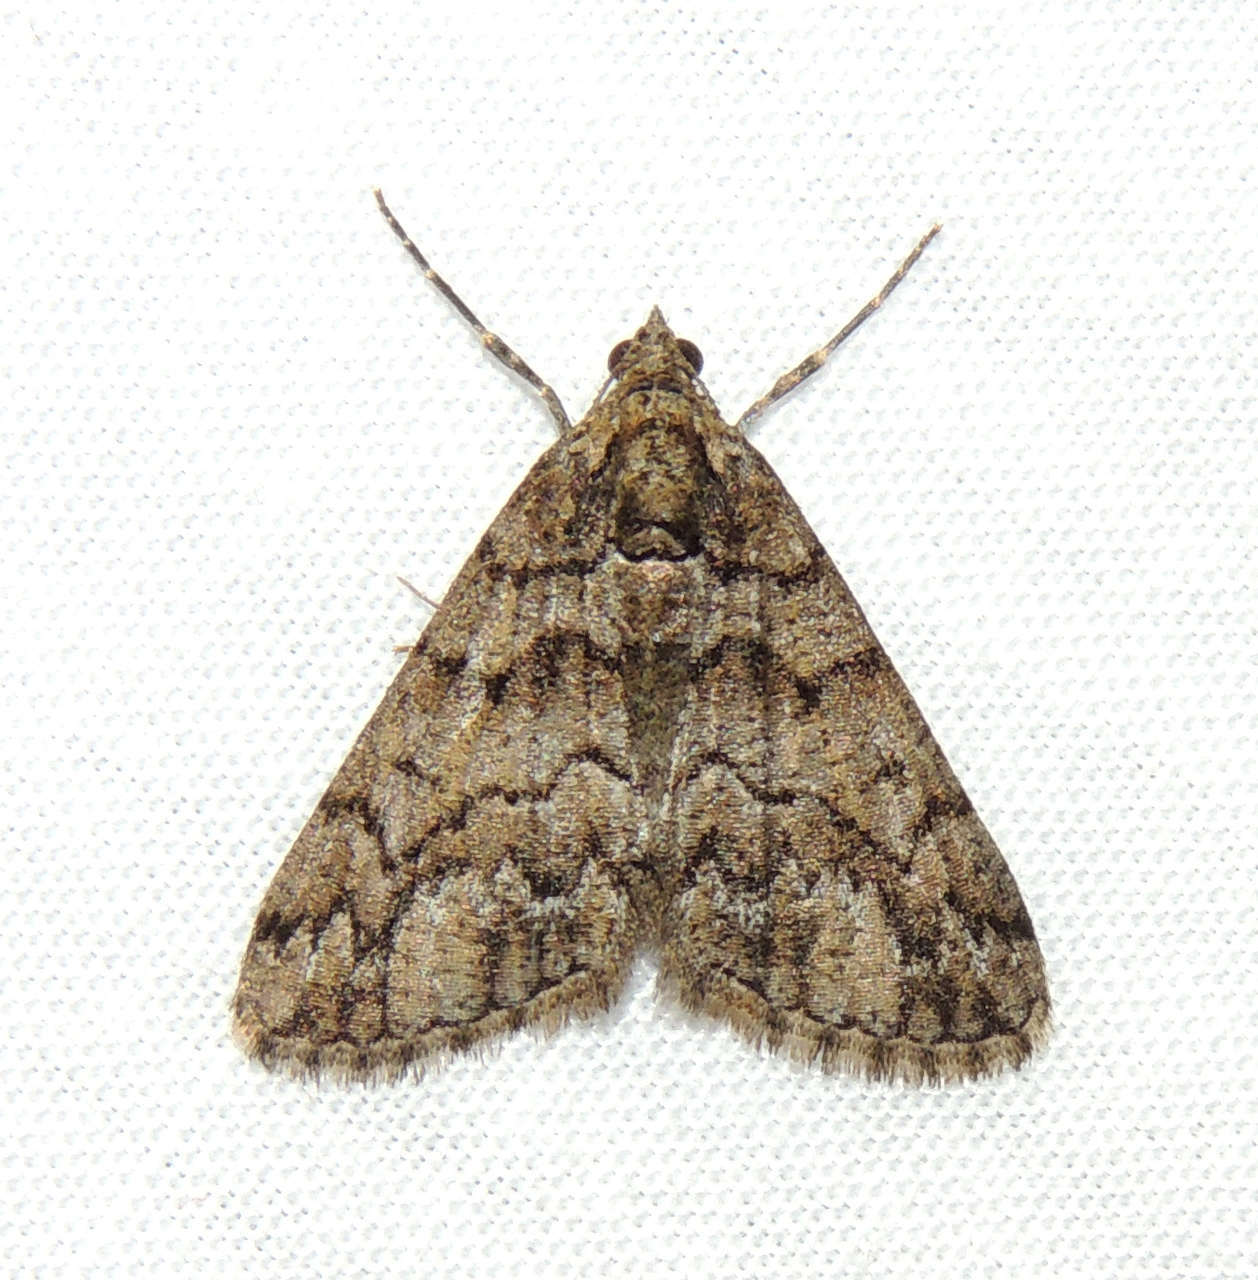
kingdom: Animalia
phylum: Arthropoda
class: Insecta
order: Lepidoptera
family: Geometridae
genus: Lipogya
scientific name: Lipogya exprimataria
